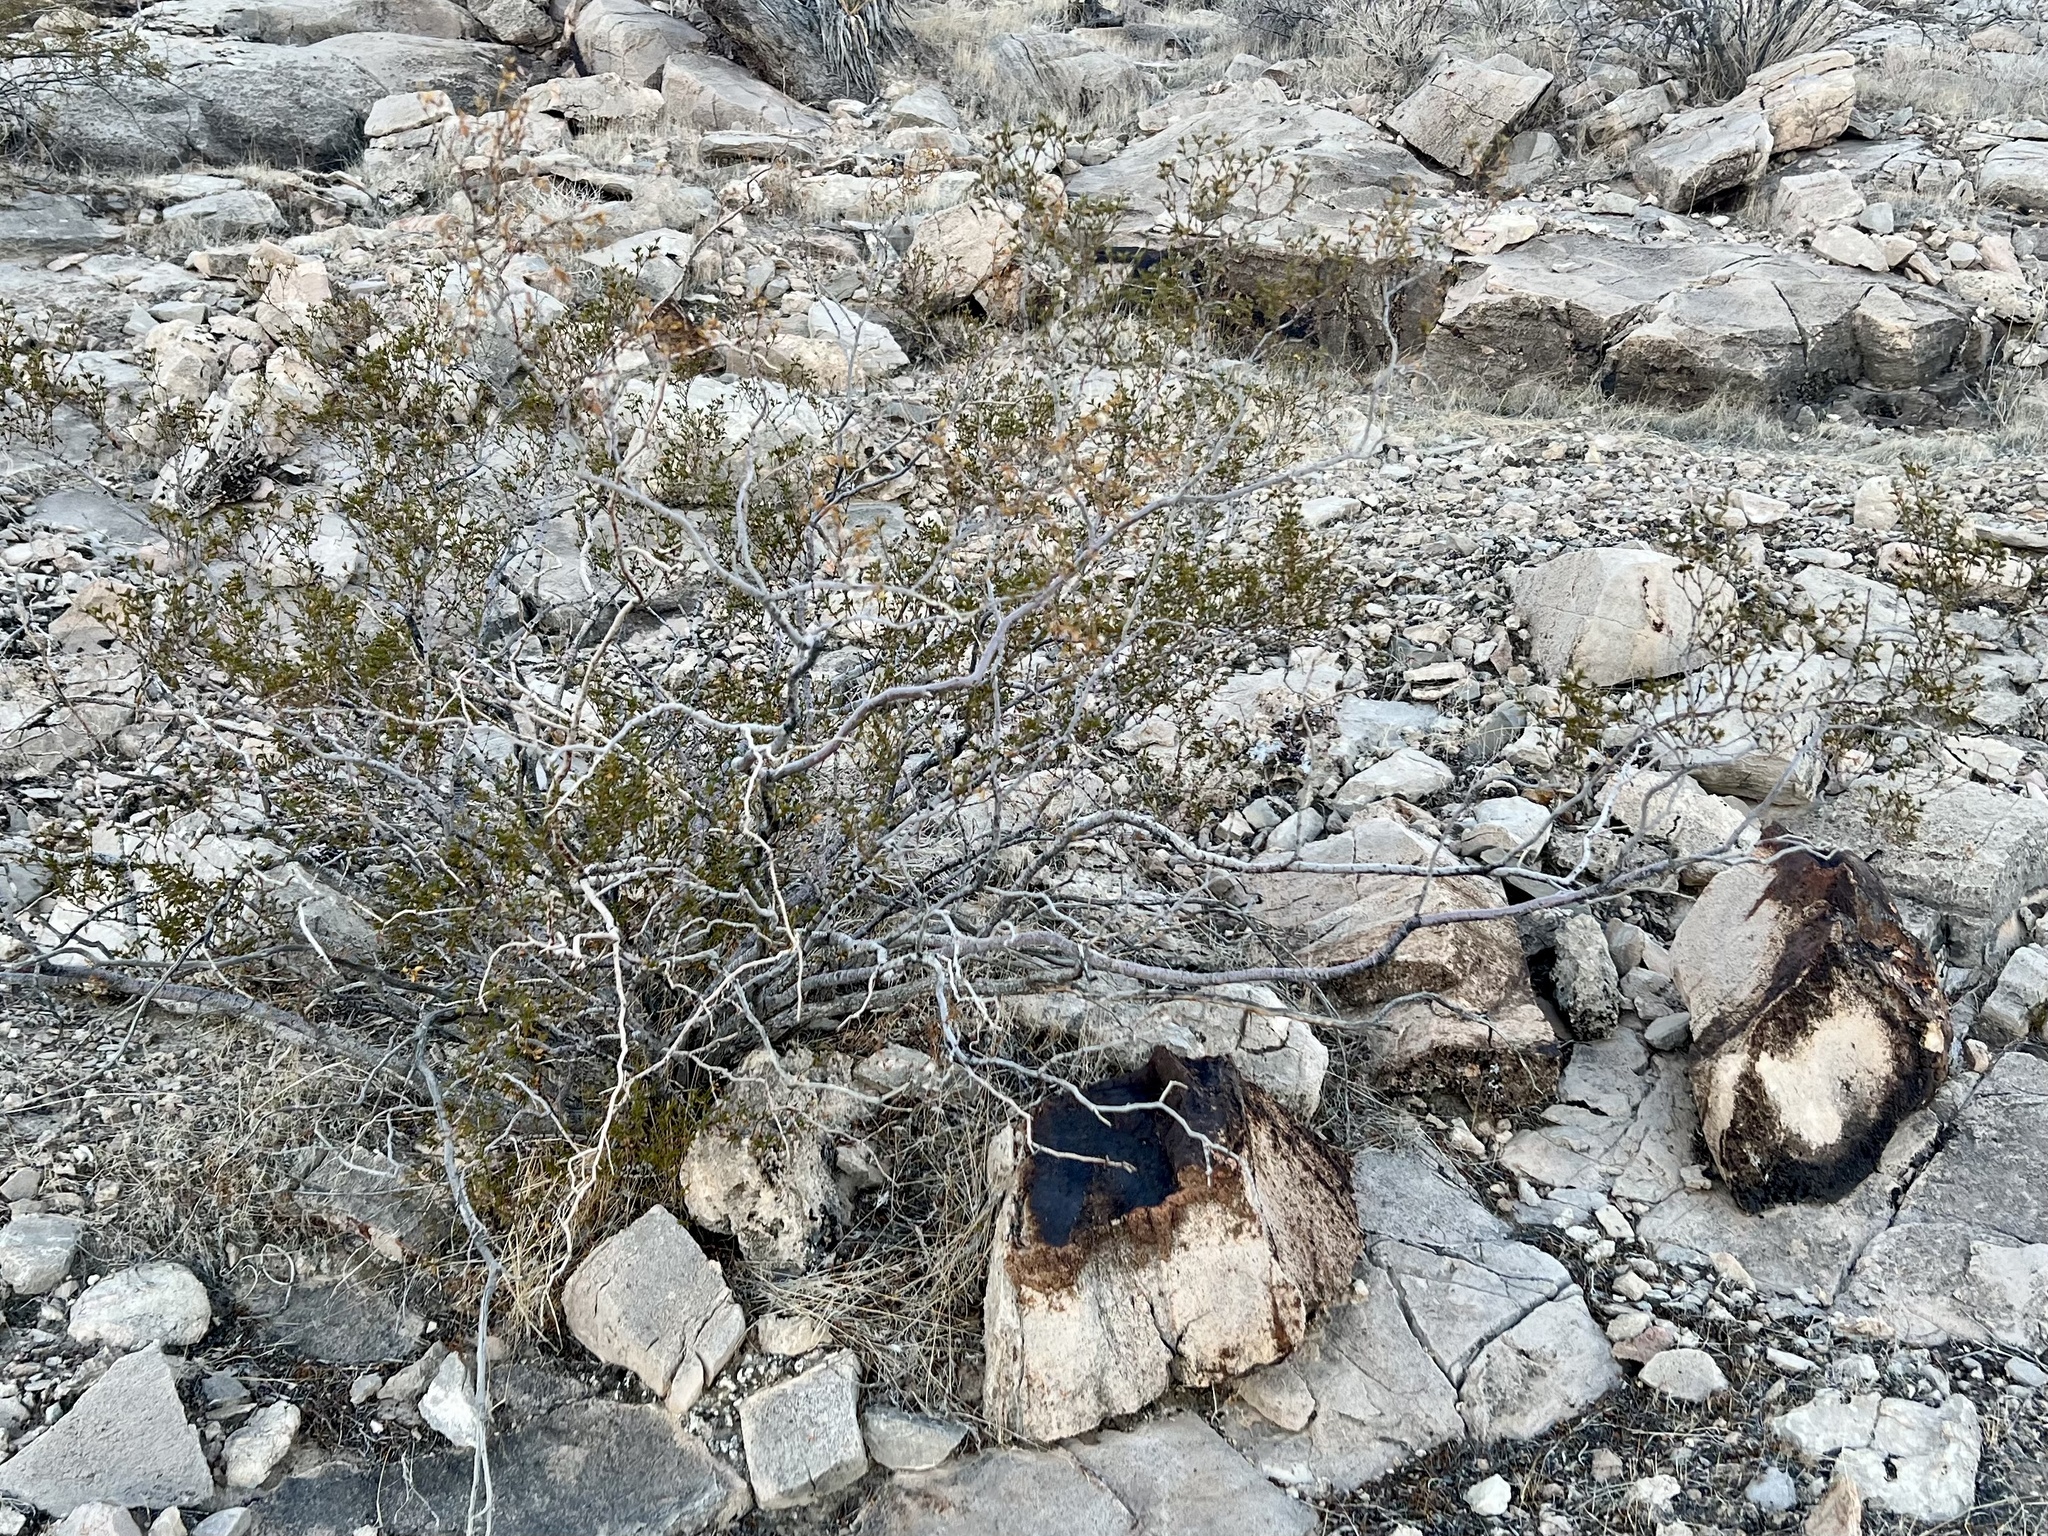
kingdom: Plantae
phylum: Tracheophyta
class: Magnoliopsida
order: Zygophyllales
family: Zygophyllaceae
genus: Larrea
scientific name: Larrea tridentata
